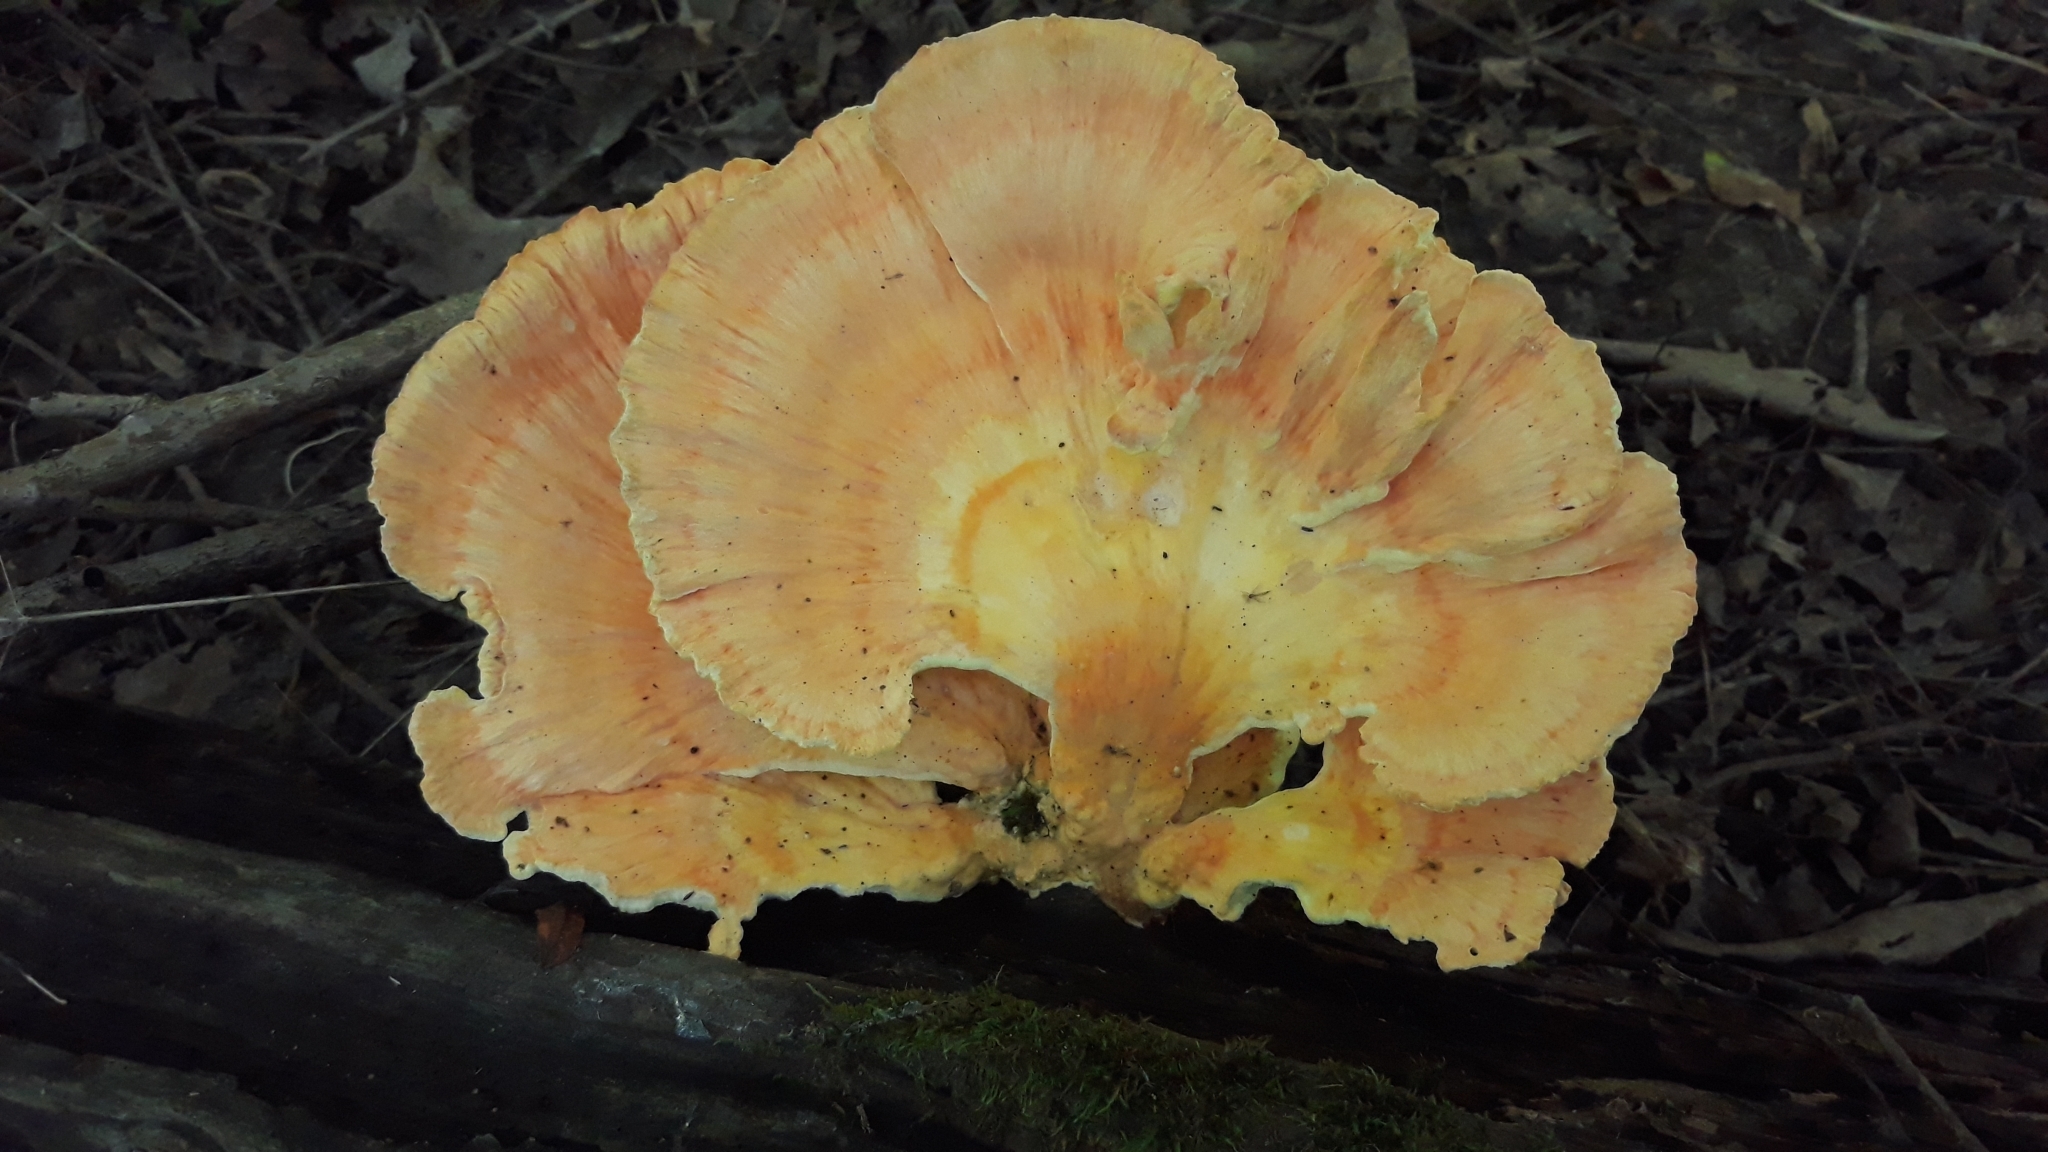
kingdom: Fungi
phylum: Basidiomycota
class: Agaricomycetes
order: Polyporales
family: Laetiporaceae
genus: Laetiporus
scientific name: Laetiporus sulphureus
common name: Chicken of the woods
